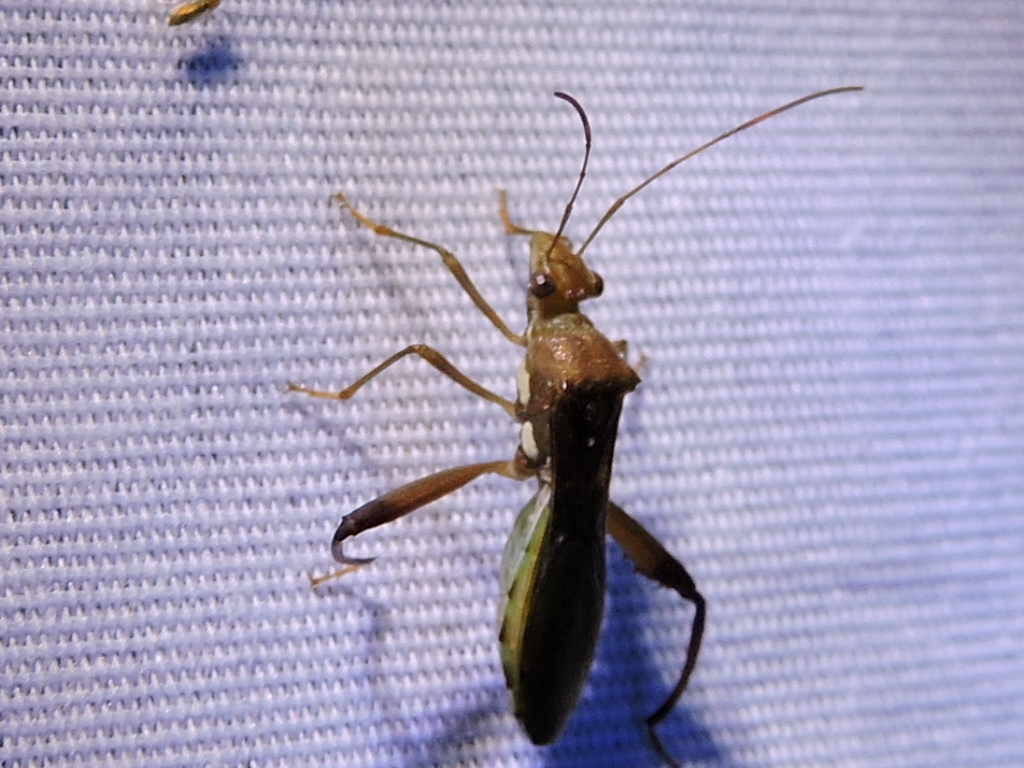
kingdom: Animalia
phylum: Arthropoda
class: Insecta
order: Hemiptera
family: Alydidae
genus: Hyalymenus
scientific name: Hyalymenus tarsatus
